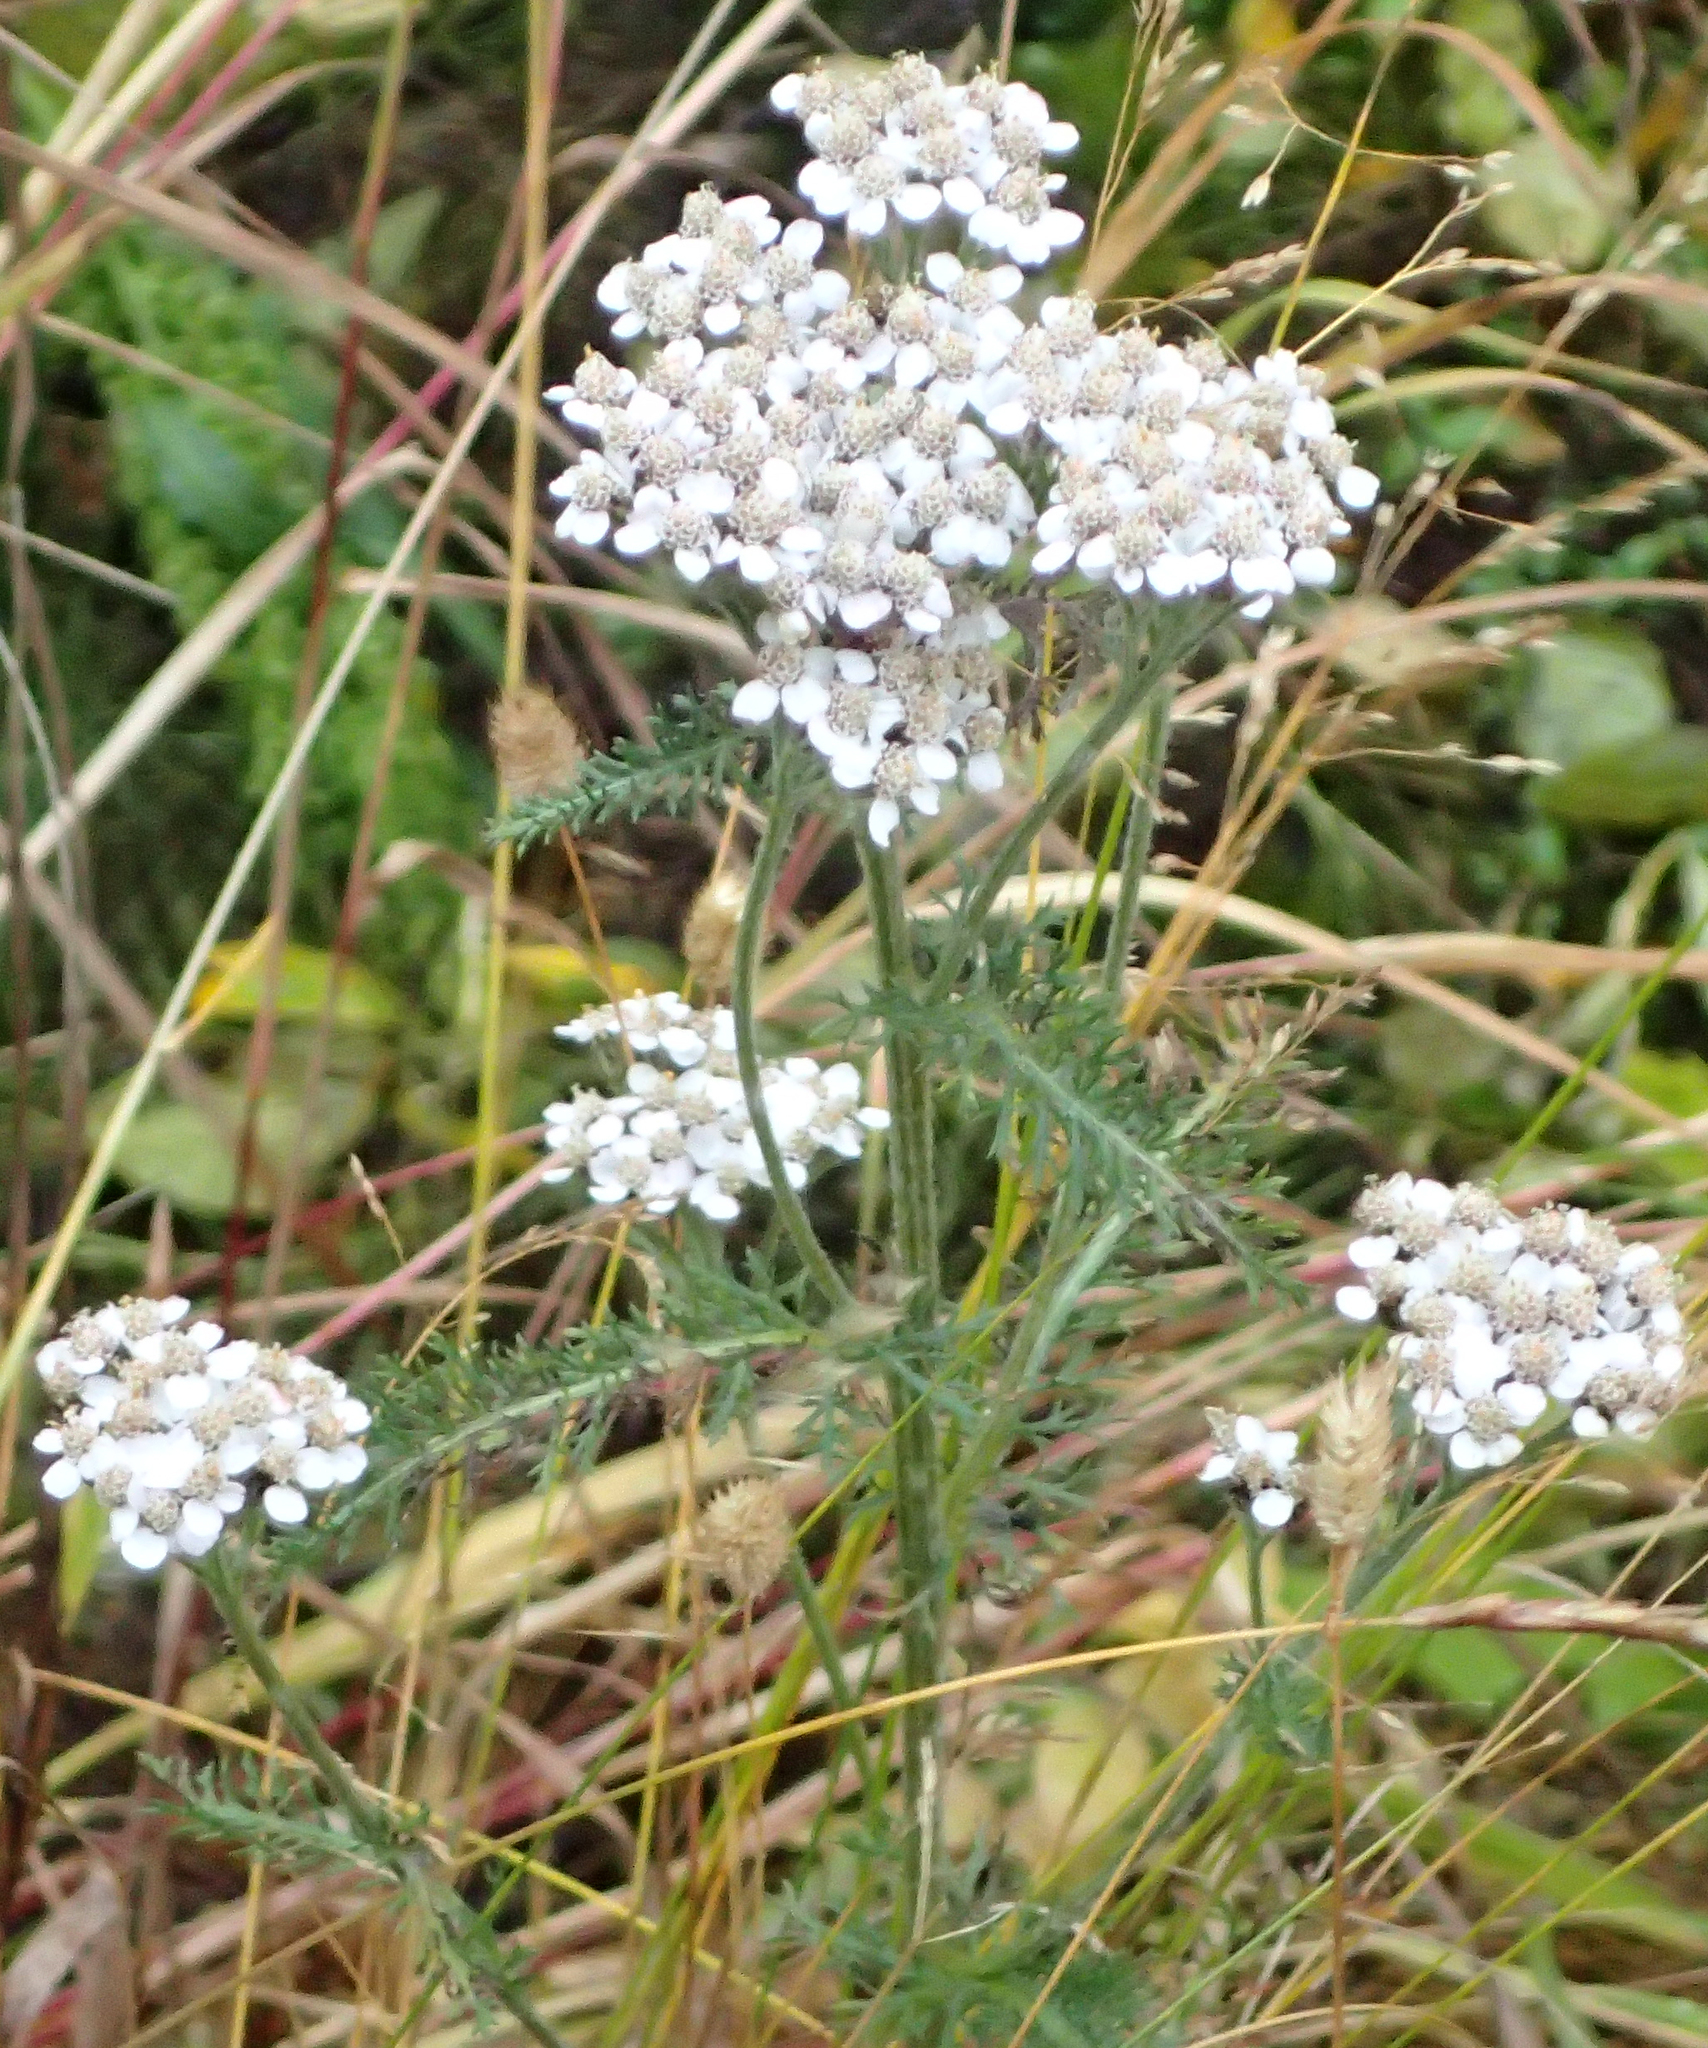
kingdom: Plantae
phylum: Tracheophyta
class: Magnoliopsida
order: Asterales
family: Asteraceae
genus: Achillea
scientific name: Achillea millefolium
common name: Yarrow
